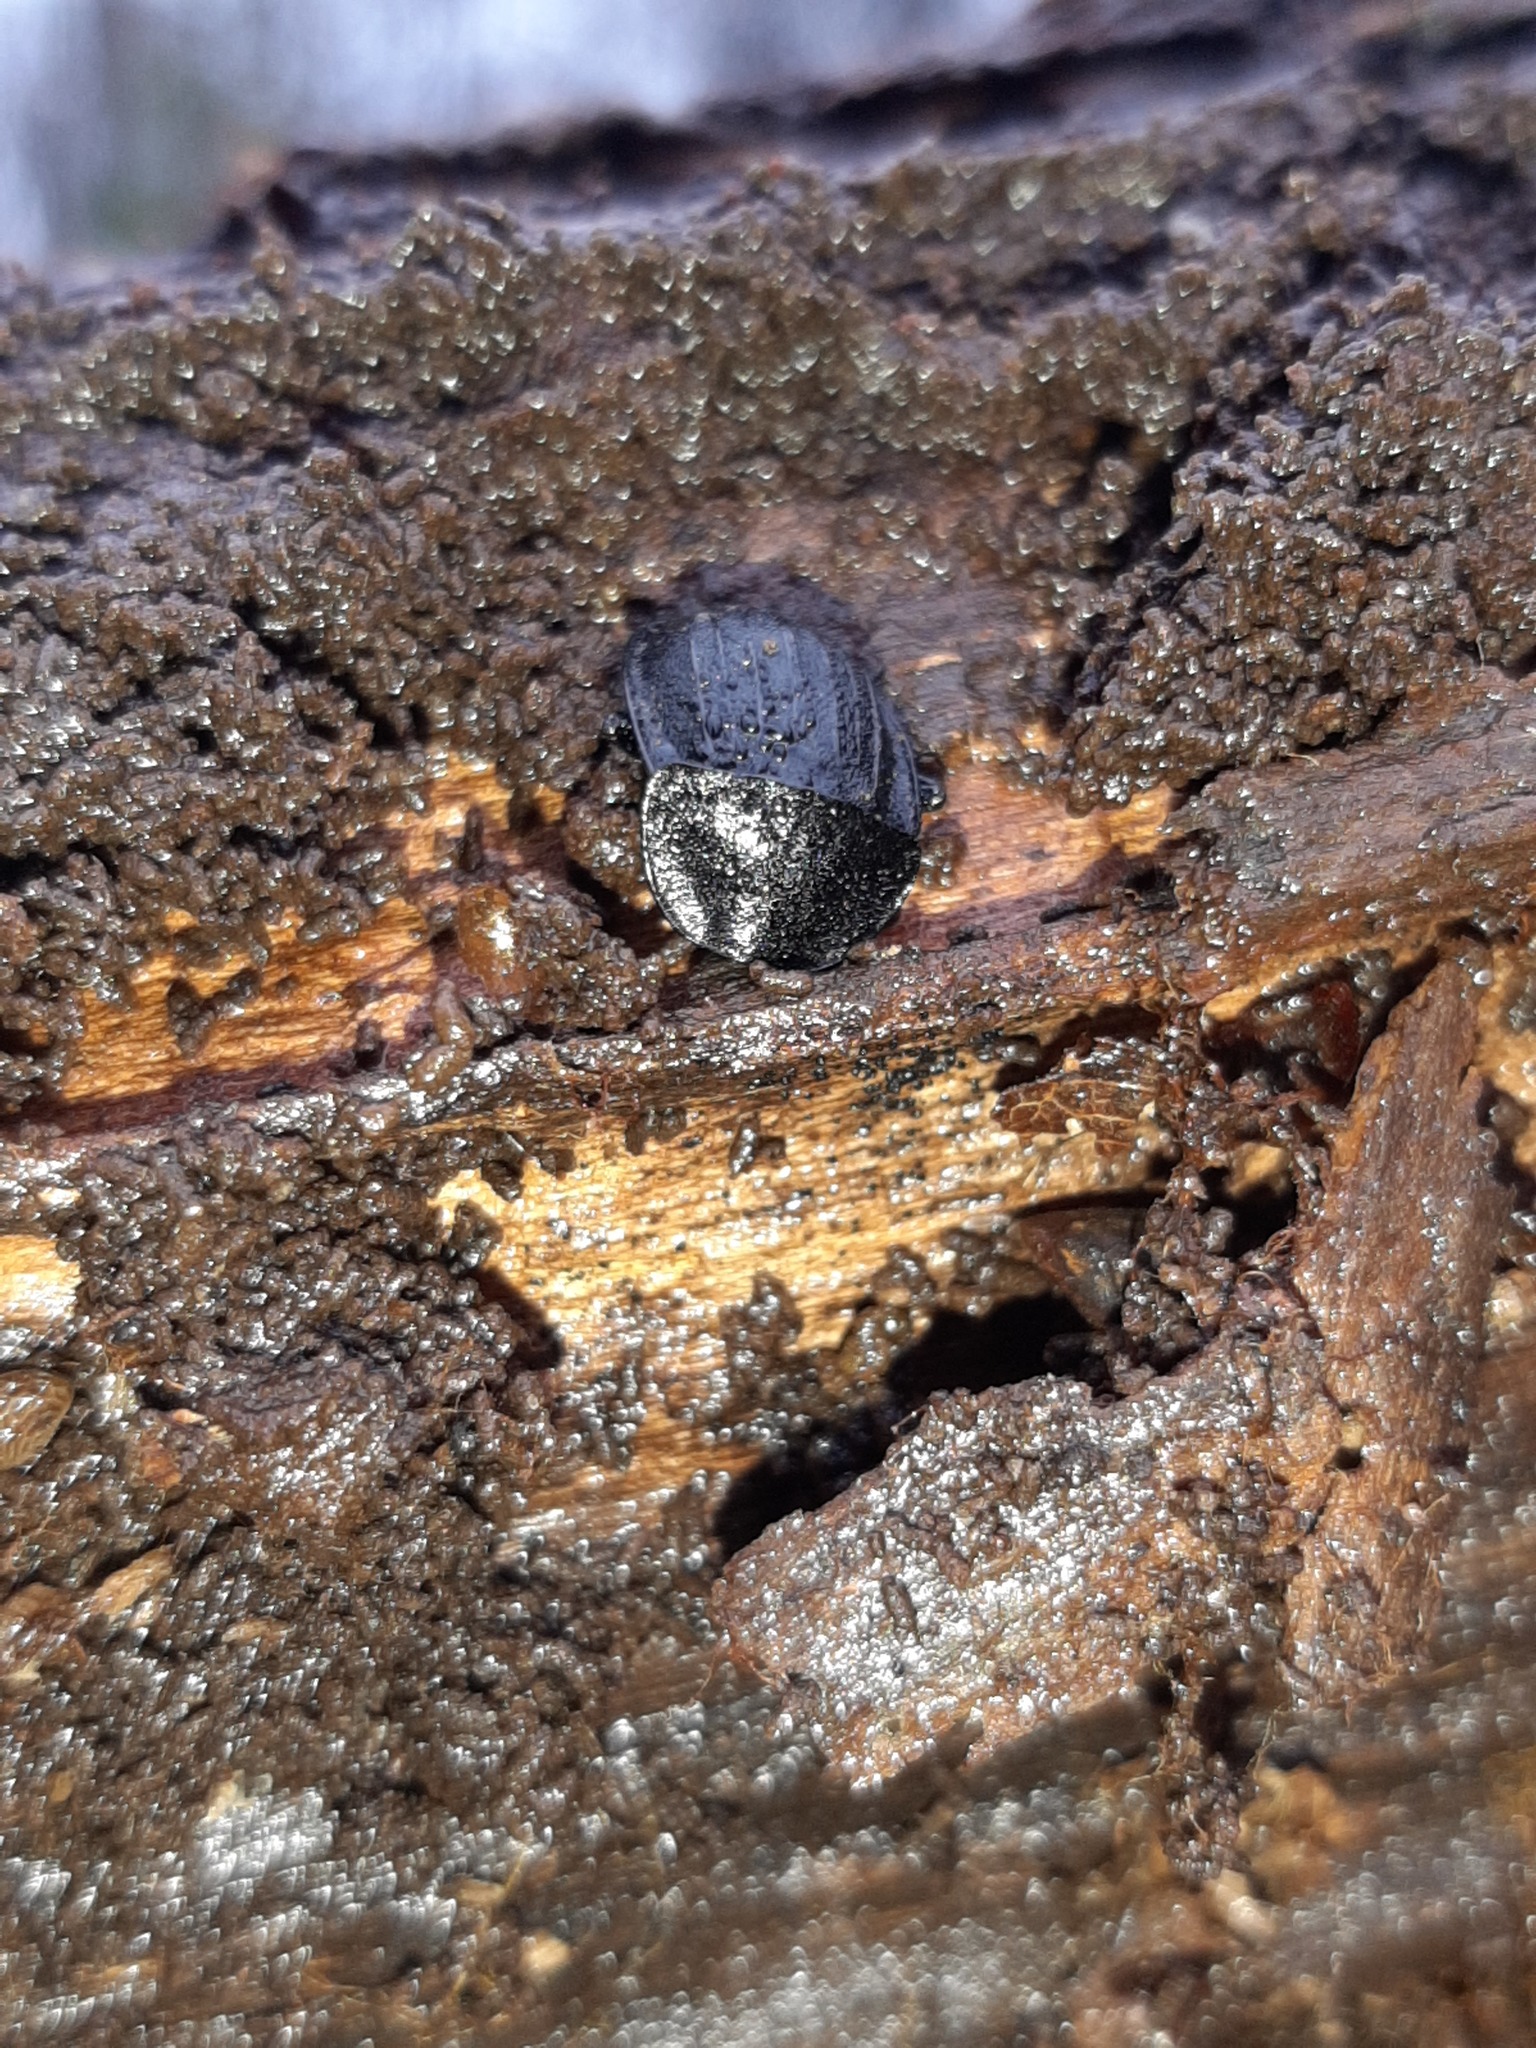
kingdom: Animalia
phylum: Arthropoda
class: Insecta
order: Coleoptera
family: Staphylinidae
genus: Silpha
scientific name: Silpha atrata
